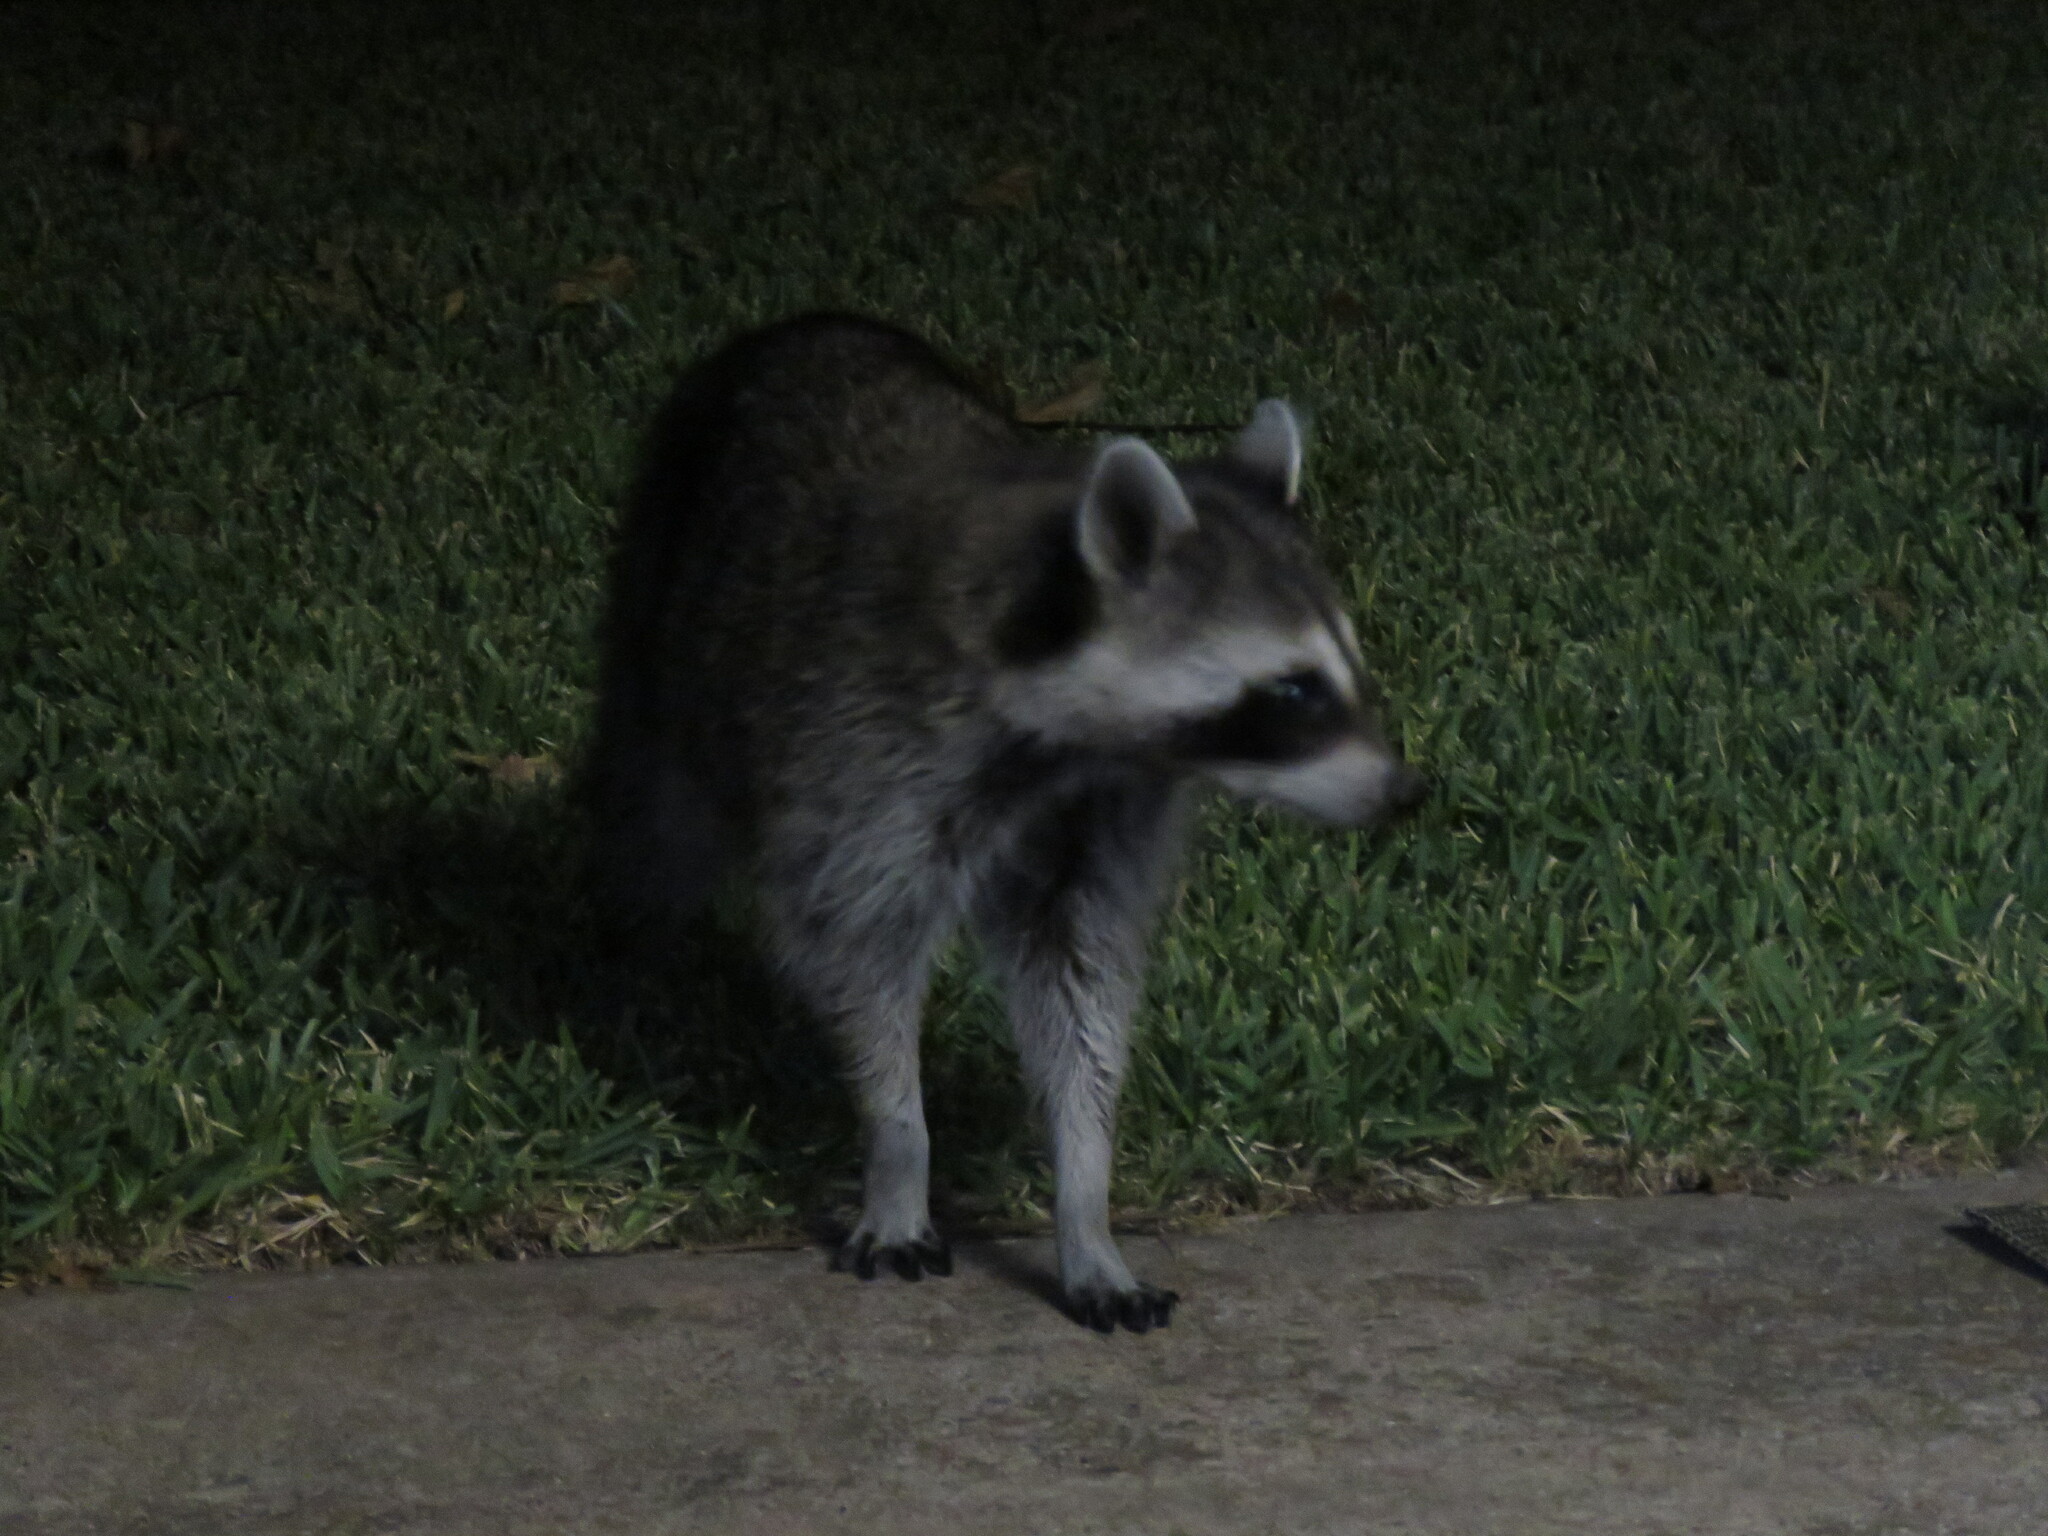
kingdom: Animalia
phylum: Chordata
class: Mammalia
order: Carnivora
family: Procyonidae
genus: Procyon
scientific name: Procyon lotor
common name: Raccoon
